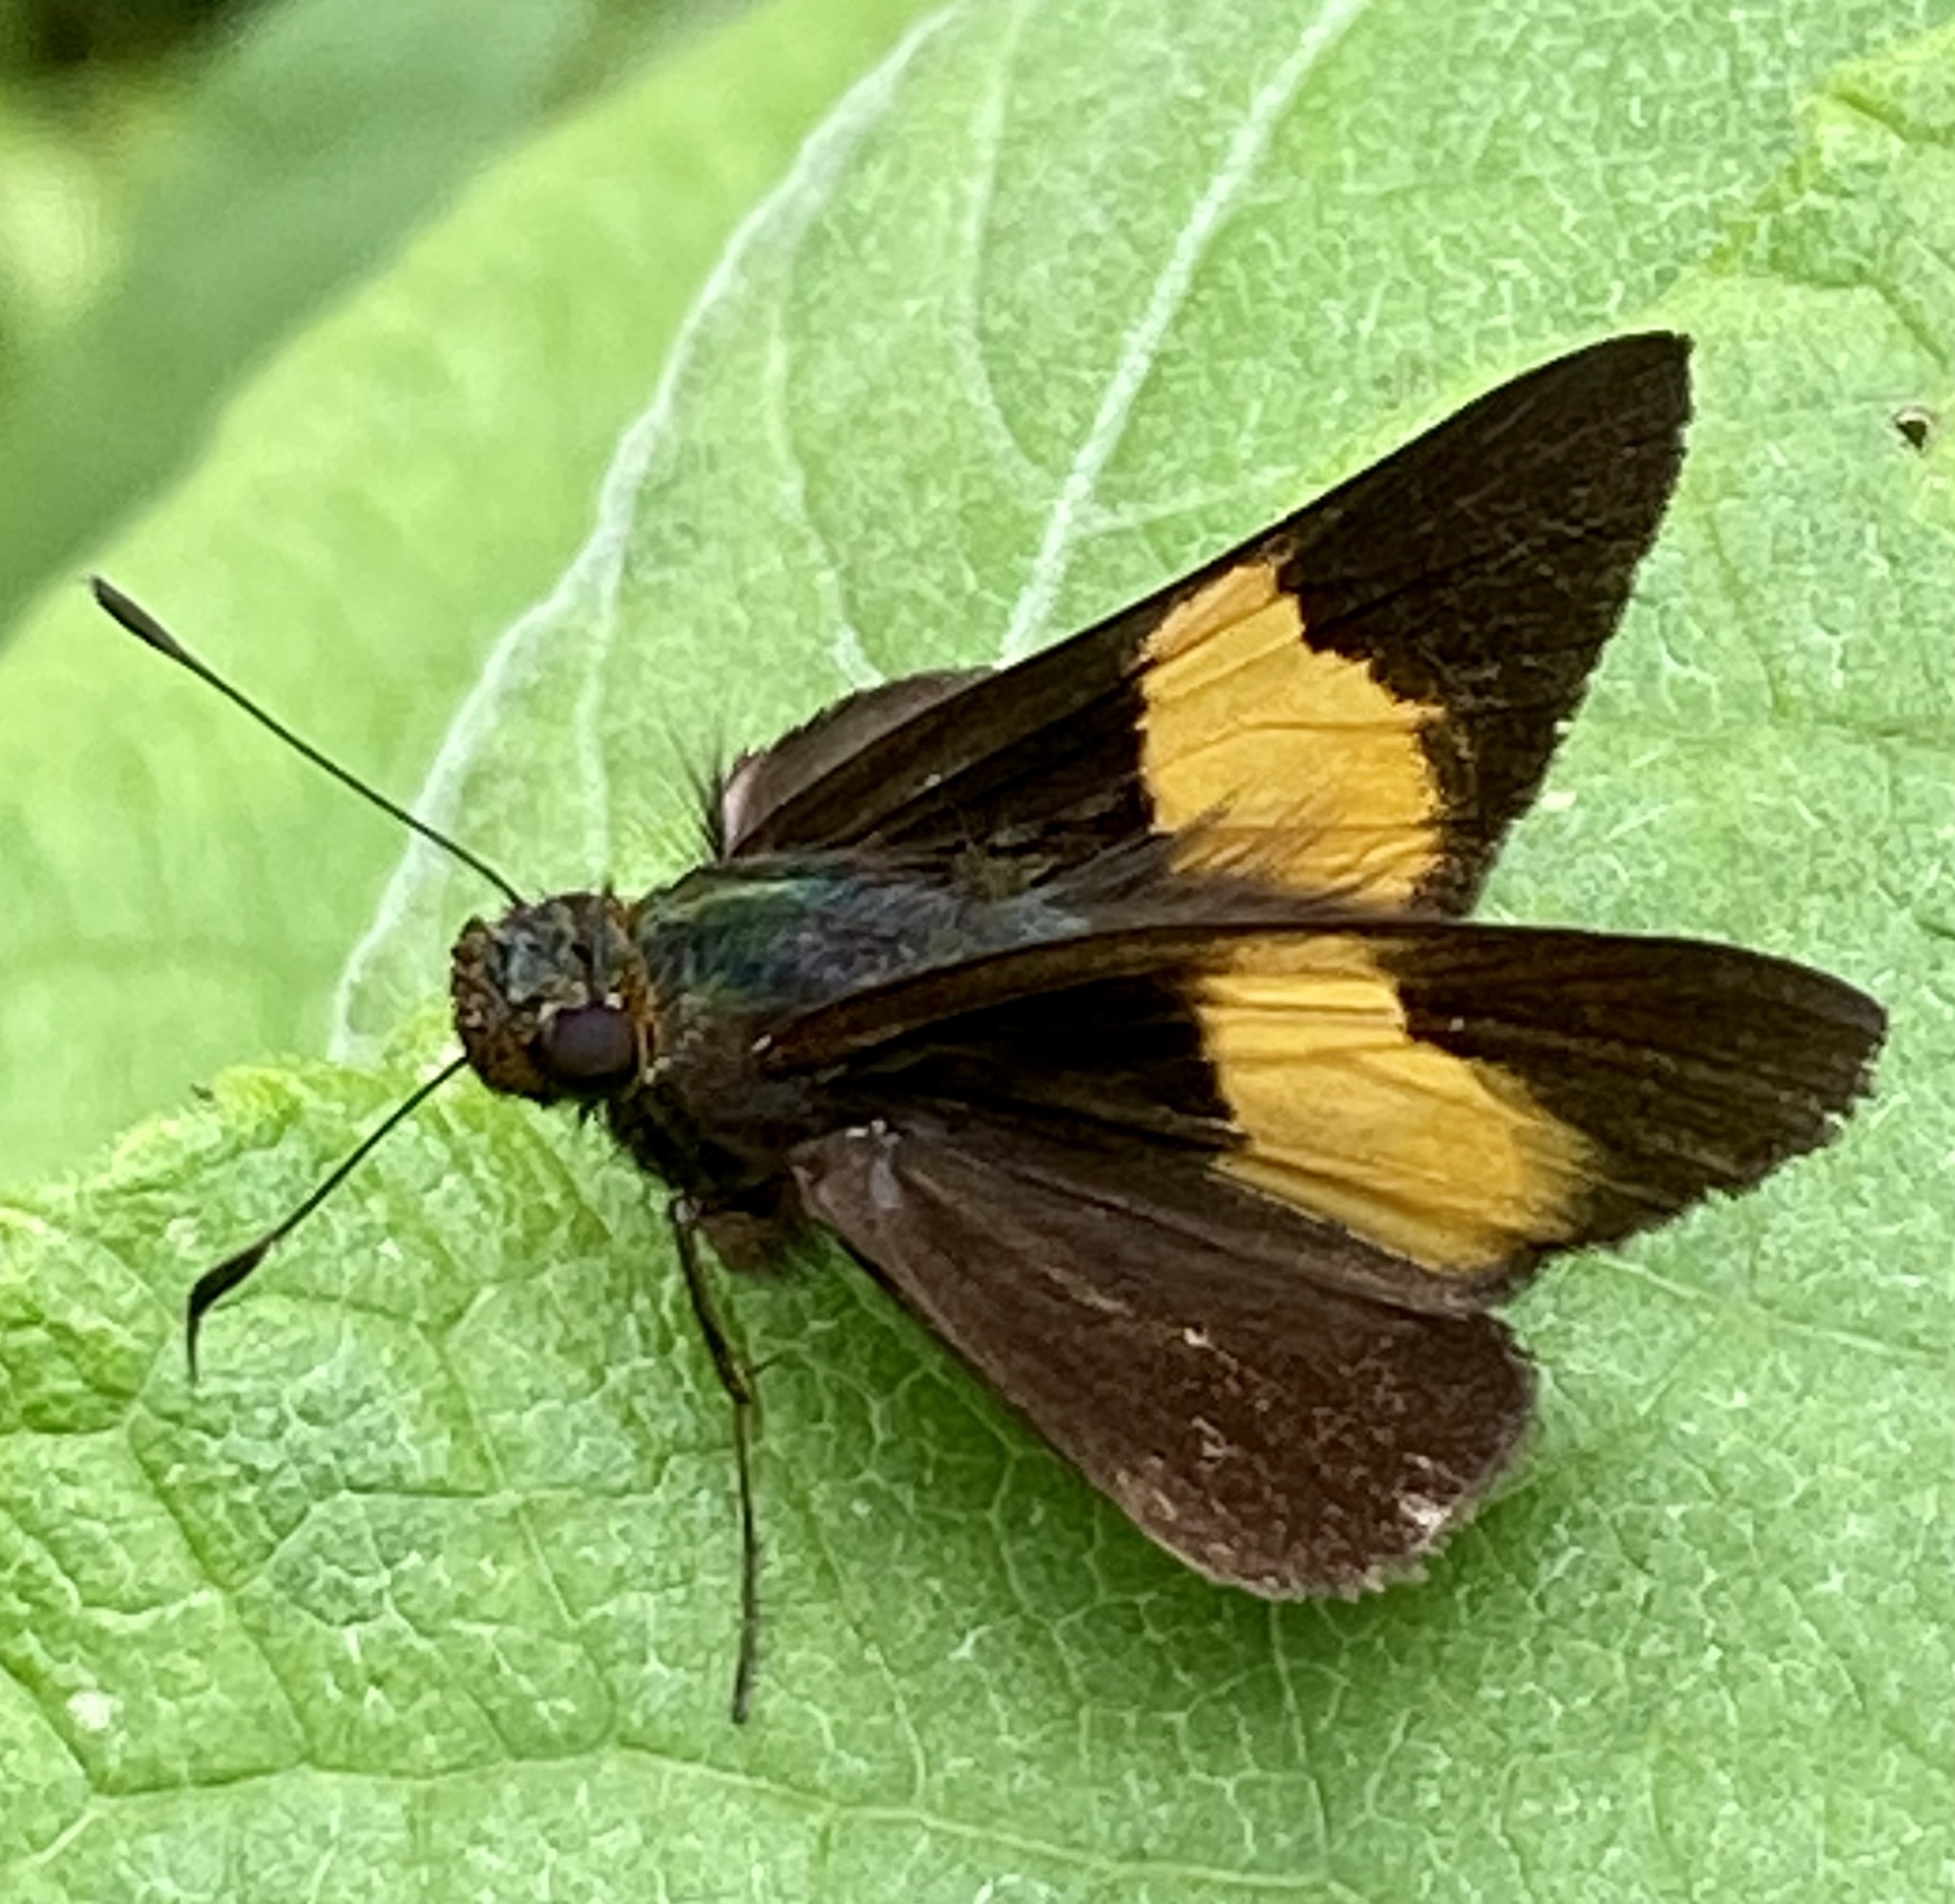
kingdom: Animalia
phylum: Arthropoda
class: Insecta
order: Lepidoptera
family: Hesperiidae
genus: Lychnuchus
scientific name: Lychnuchus celsus
